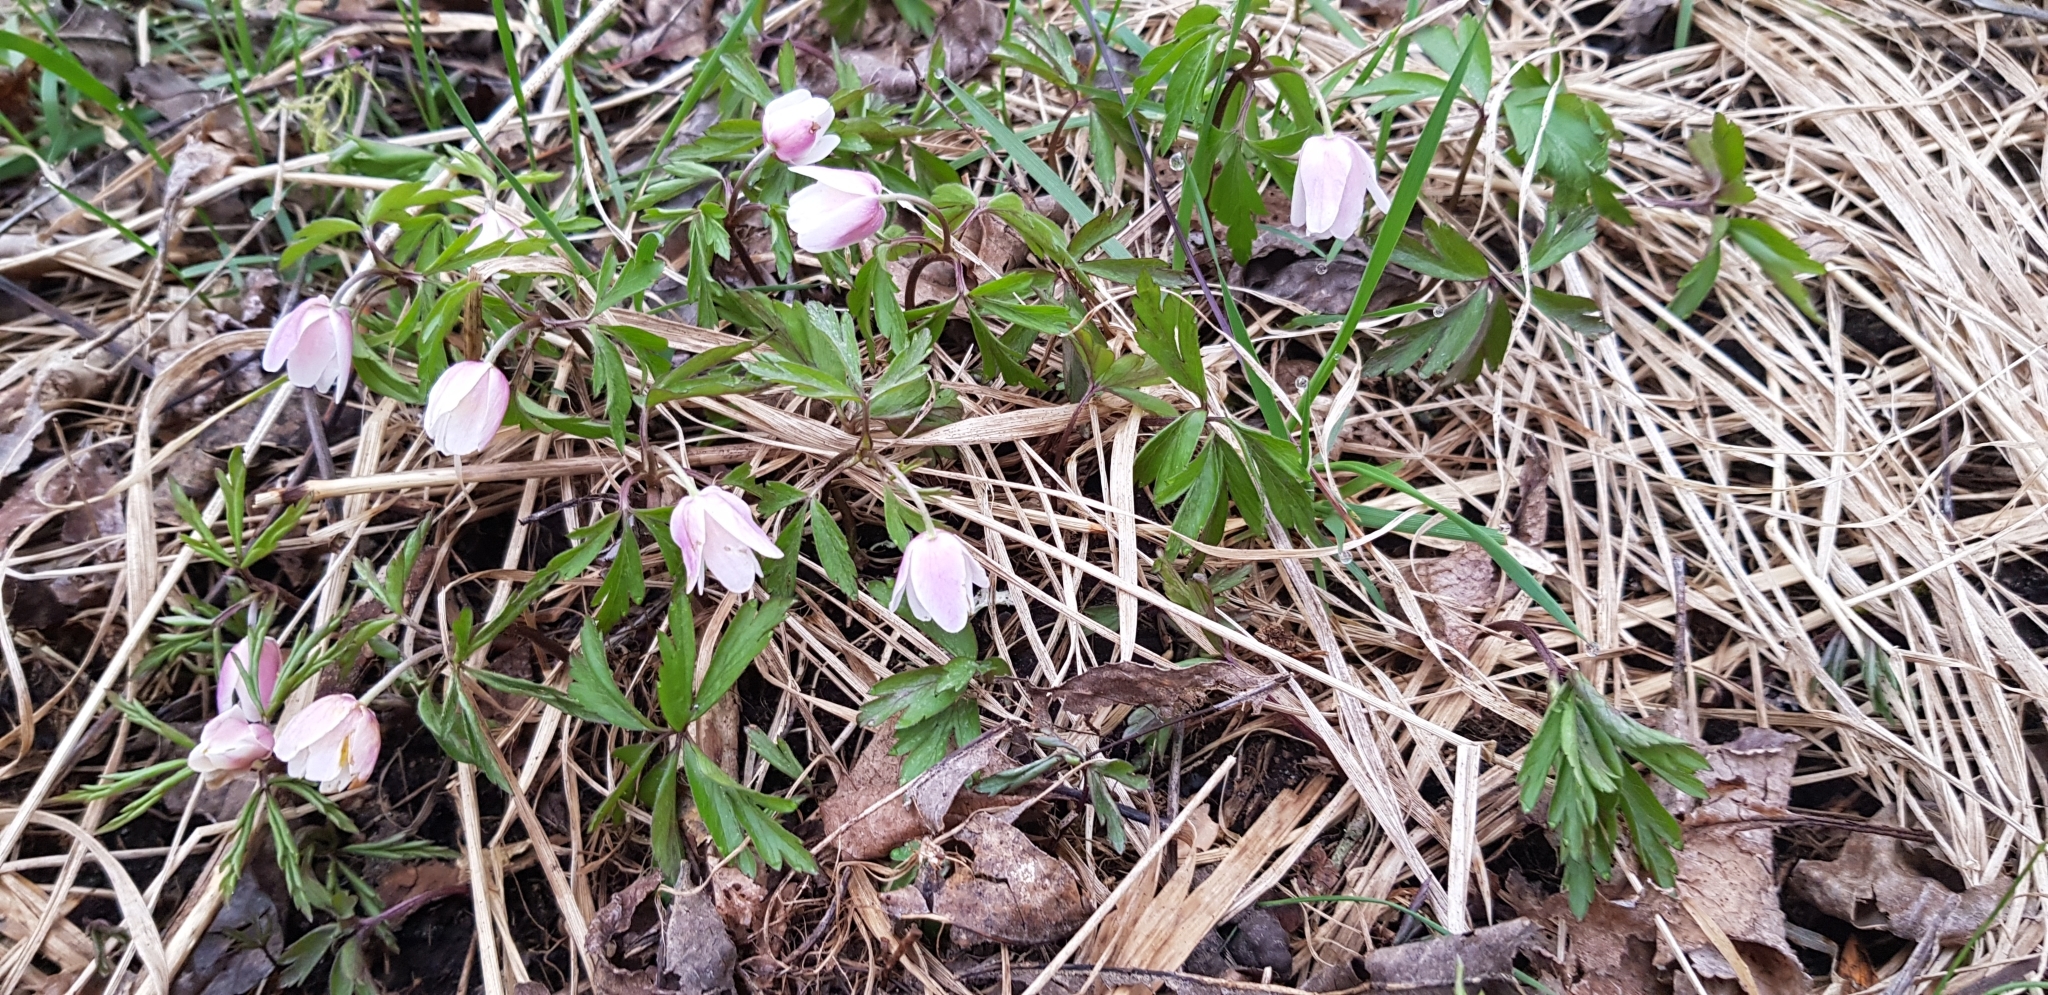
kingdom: Plantae
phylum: Tracheophyta
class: Magnoliopsida
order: Ranunculales
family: Ranunculaceae
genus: Anemone
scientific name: Anemone nemorosa
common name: Wood anemone
